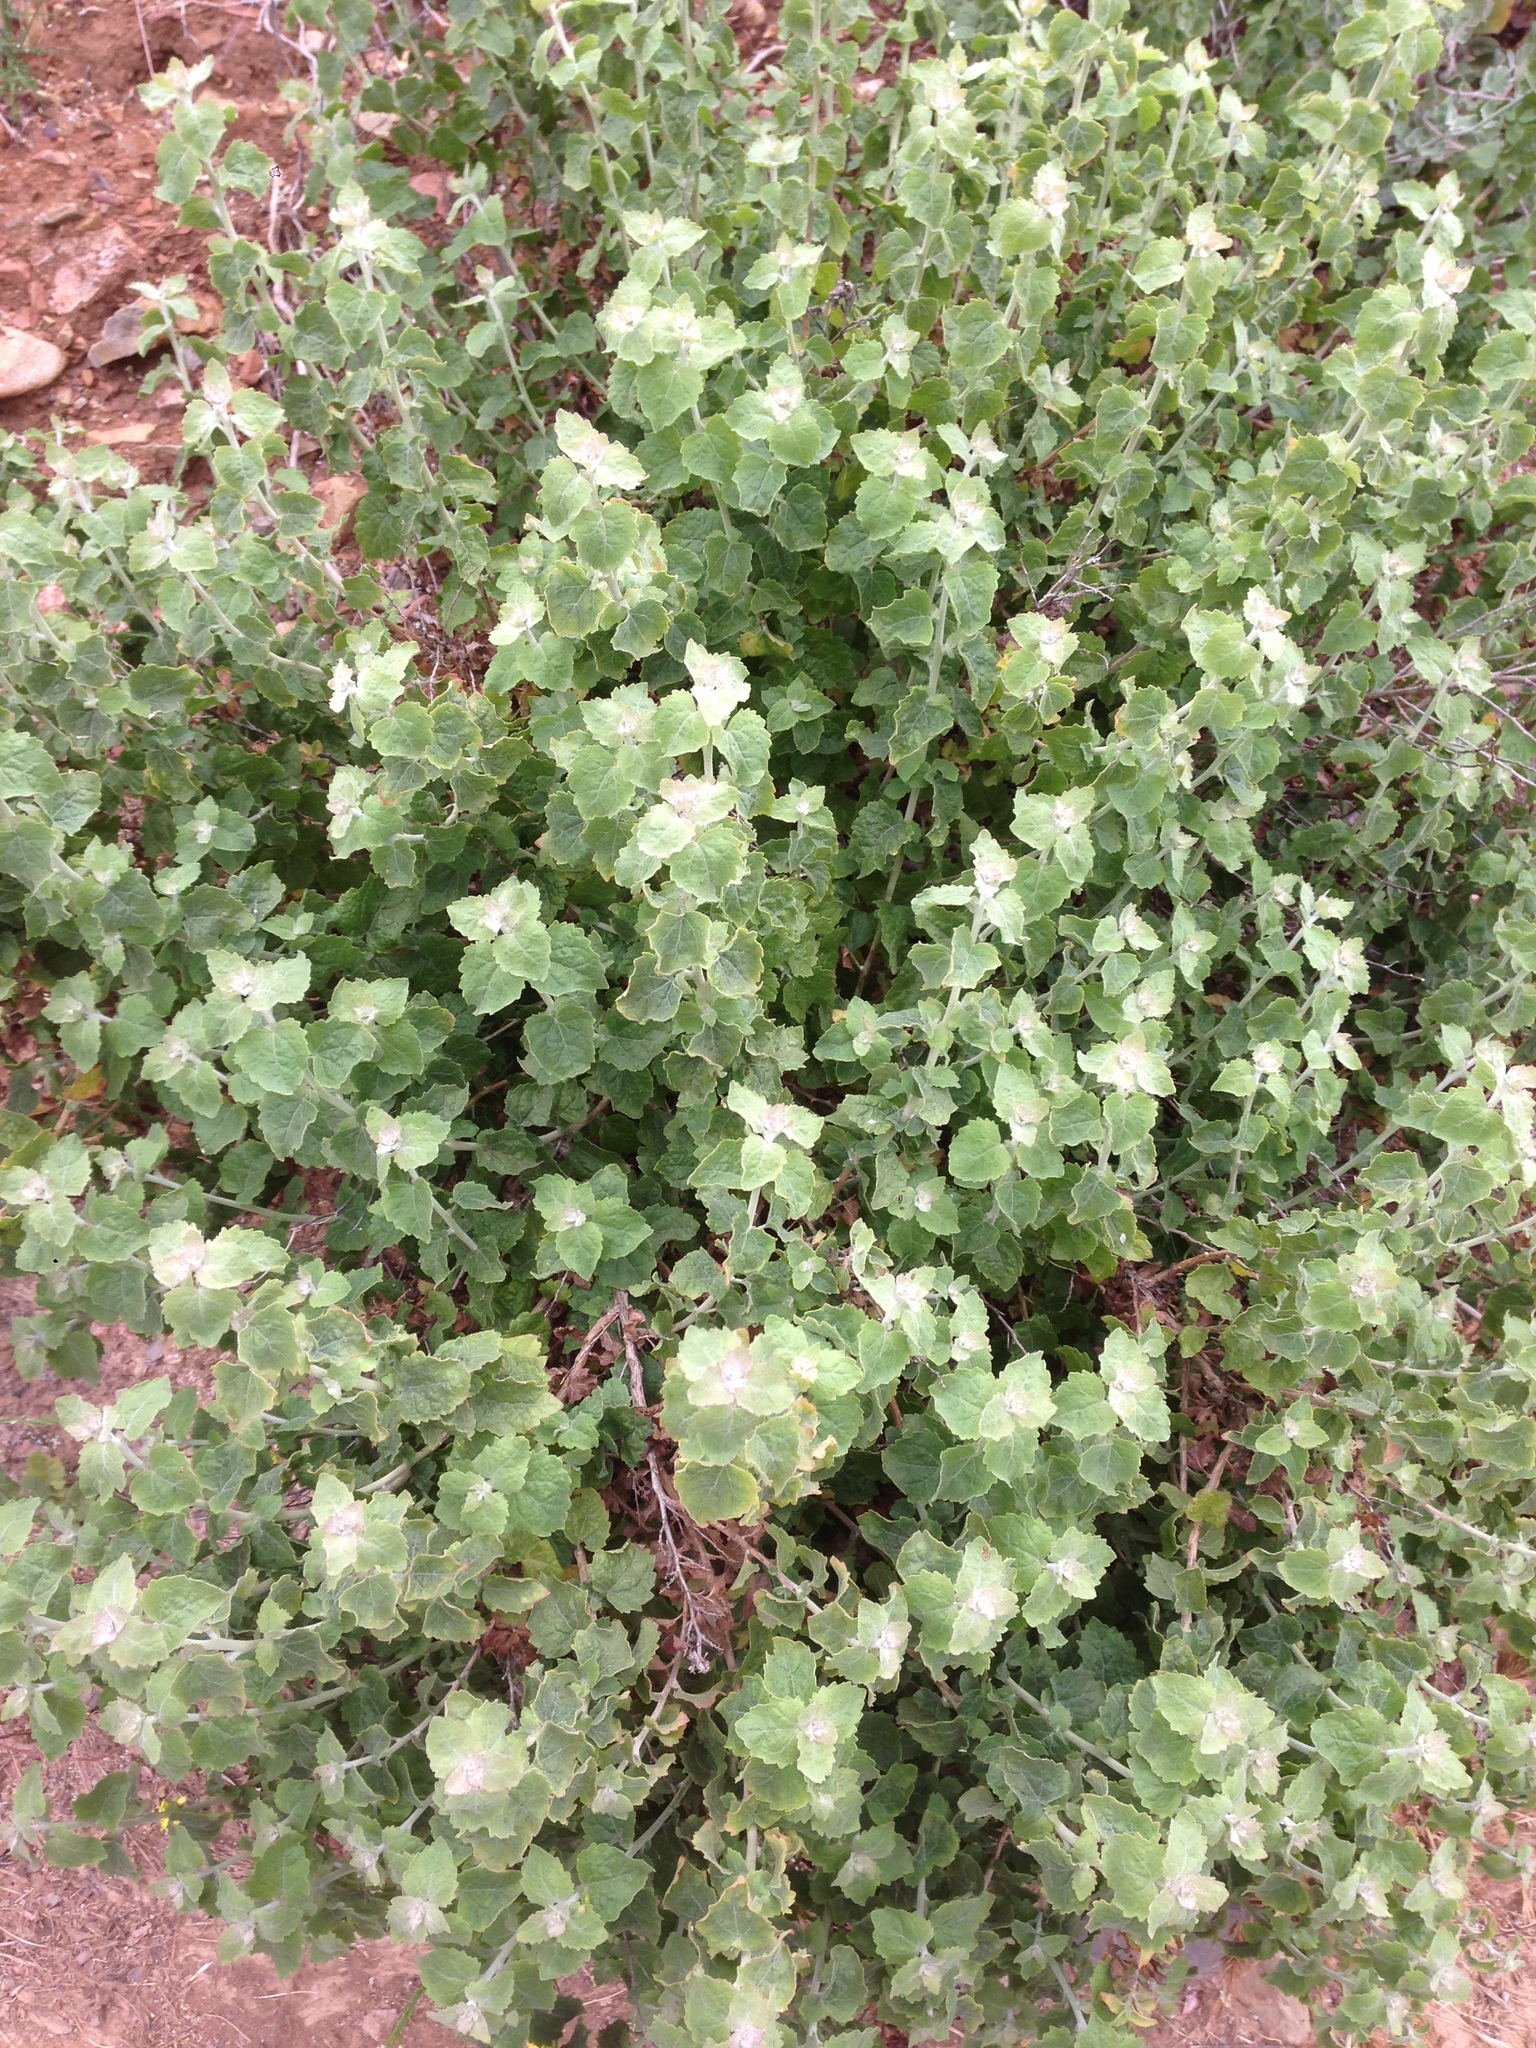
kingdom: Plantae
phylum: Tracheophyta
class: Magnoliopsida
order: Asterales
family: Asteraceae
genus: Brickellia
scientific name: Brickellia californica
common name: California brickellbush
